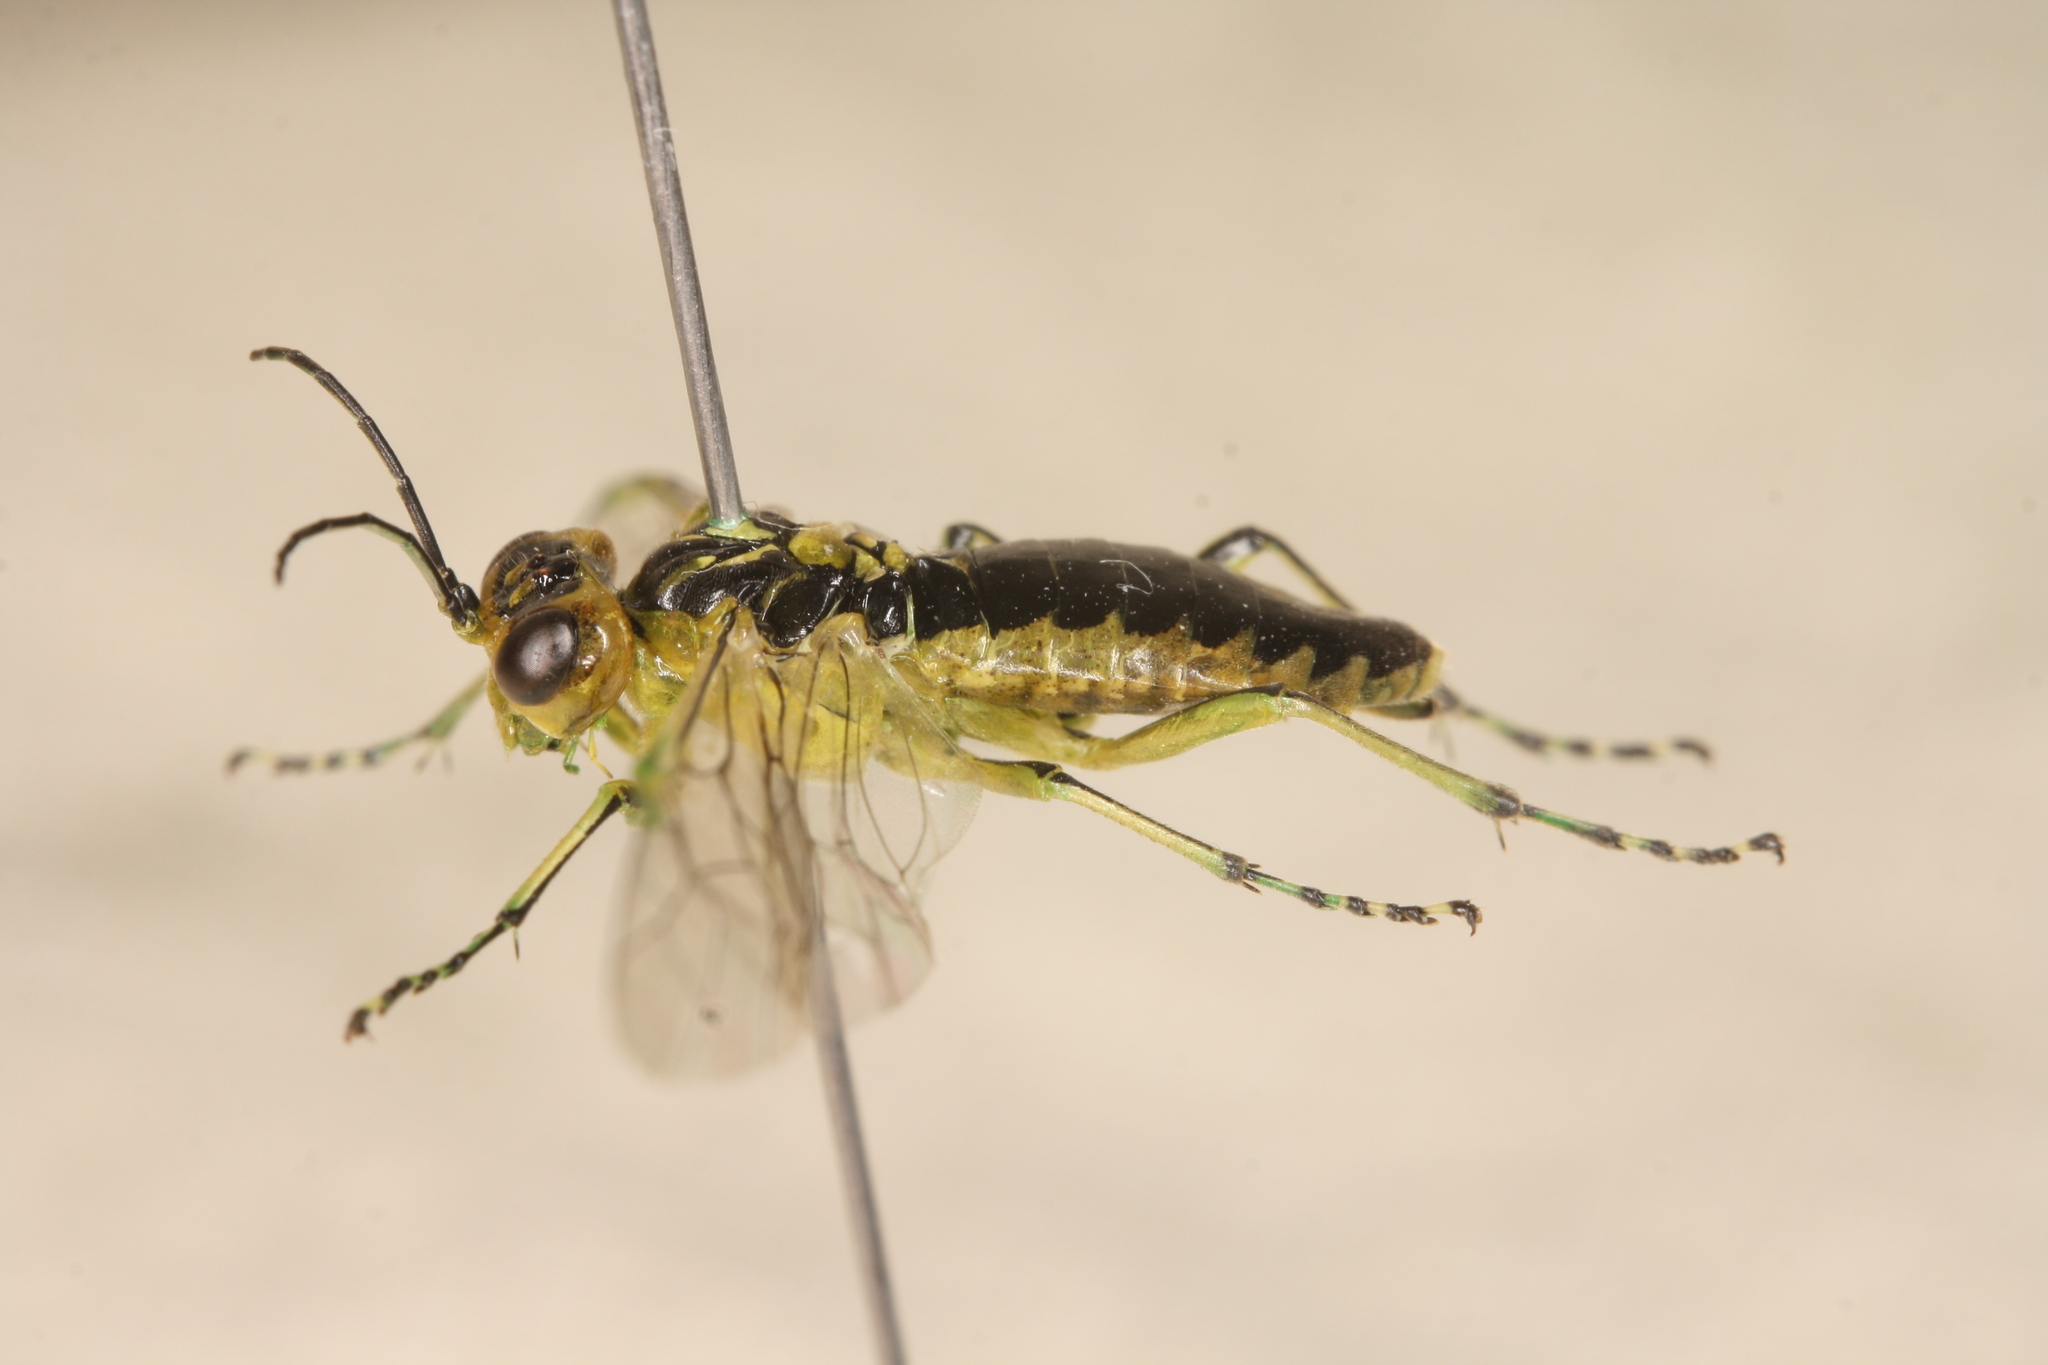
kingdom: Animalia
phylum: Arthropoda
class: Insecta
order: Hymenoptera
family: Tenthredinidae
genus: Rhogogaster
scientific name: Rhogogaster scalaris
